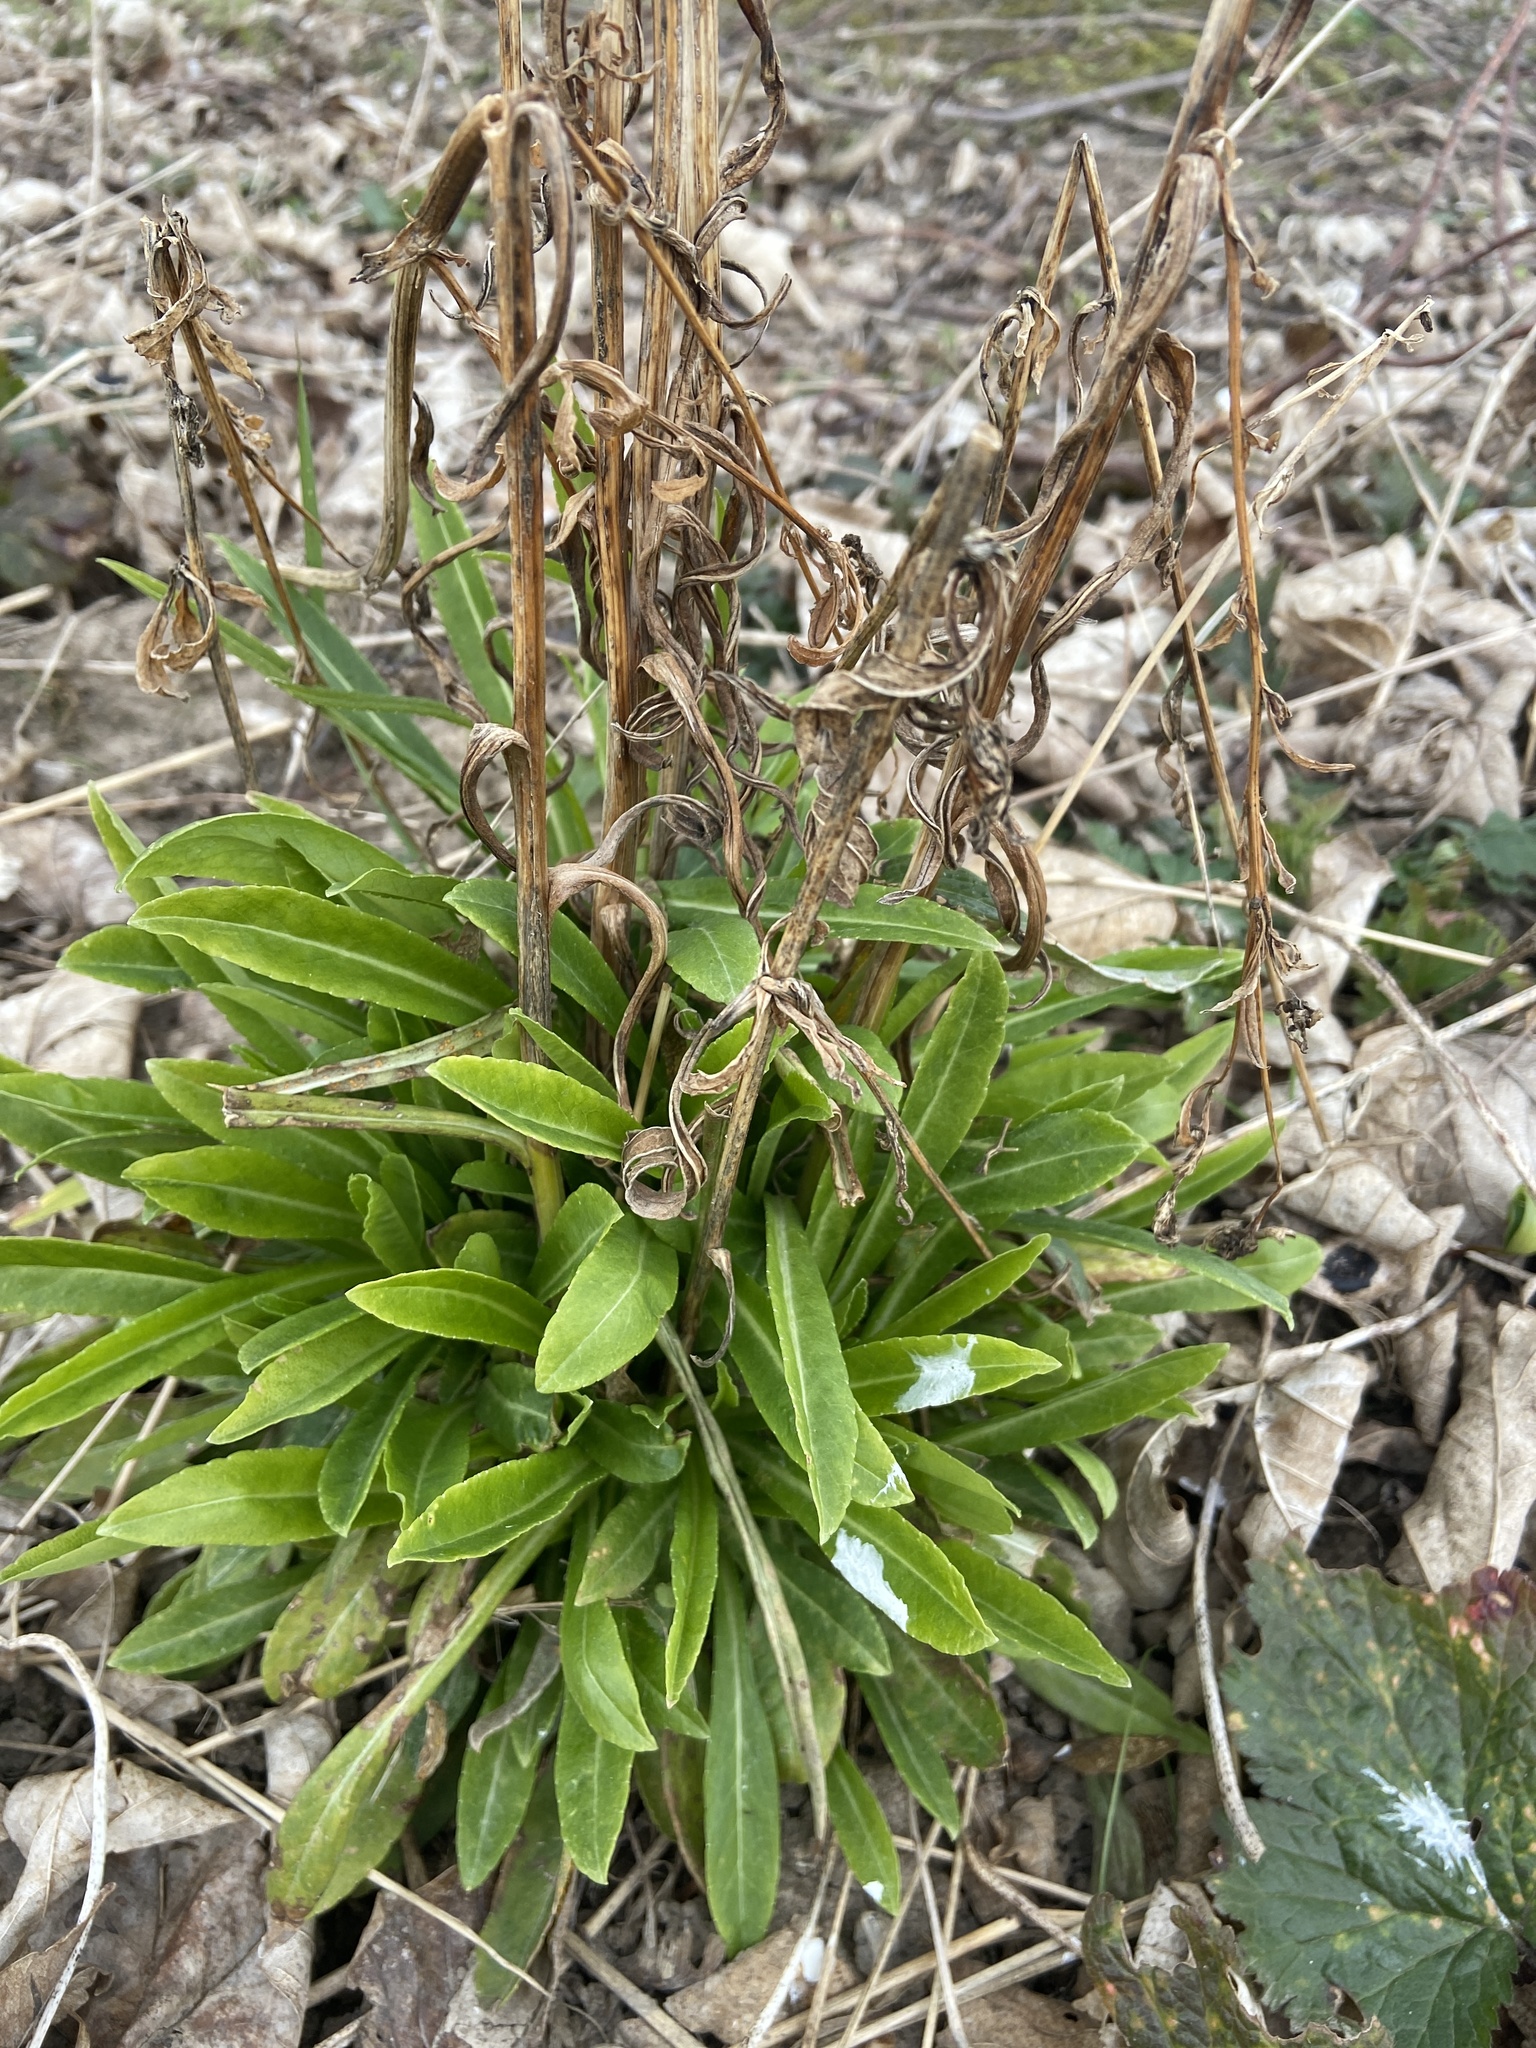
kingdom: Plantae
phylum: Tracheophyta
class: Magnoliopsida
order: Asterales
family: Campanulaceae
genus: Campanula
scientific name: Campanula persicifolia
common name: Peach-leaved bellflower
